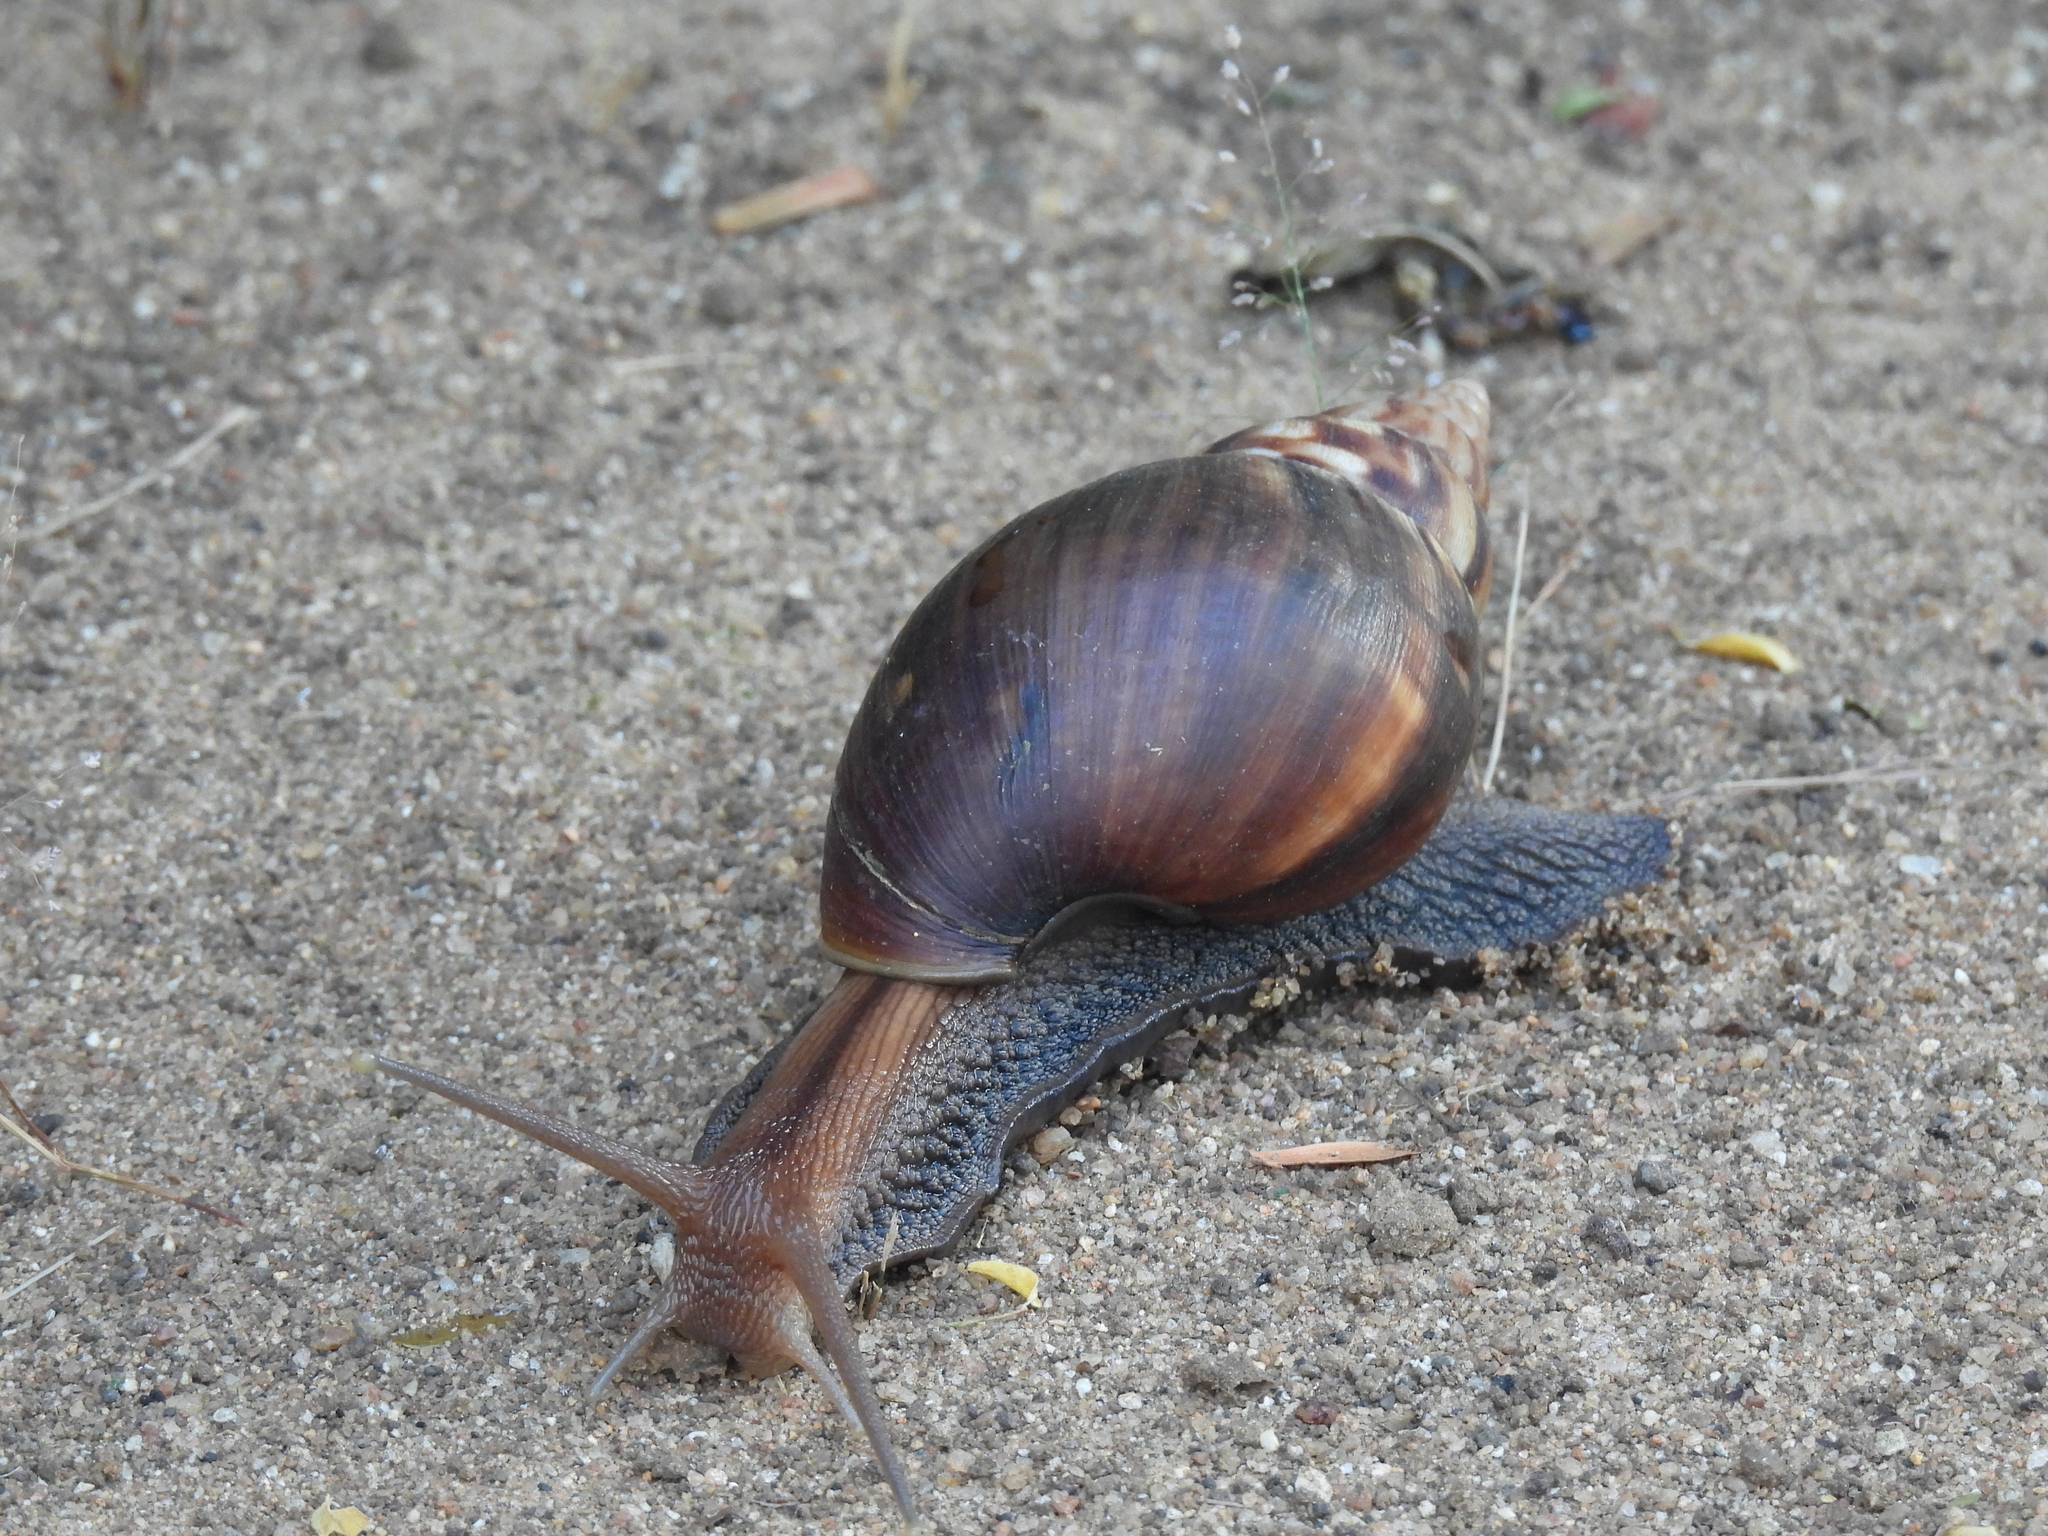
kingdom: Animalia
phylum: Mollusca
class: Gastropoda
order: Stylommatophora
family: Achatinidae
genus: Lissachatina
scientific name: Lissachatina fulica
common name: Giant african snail
